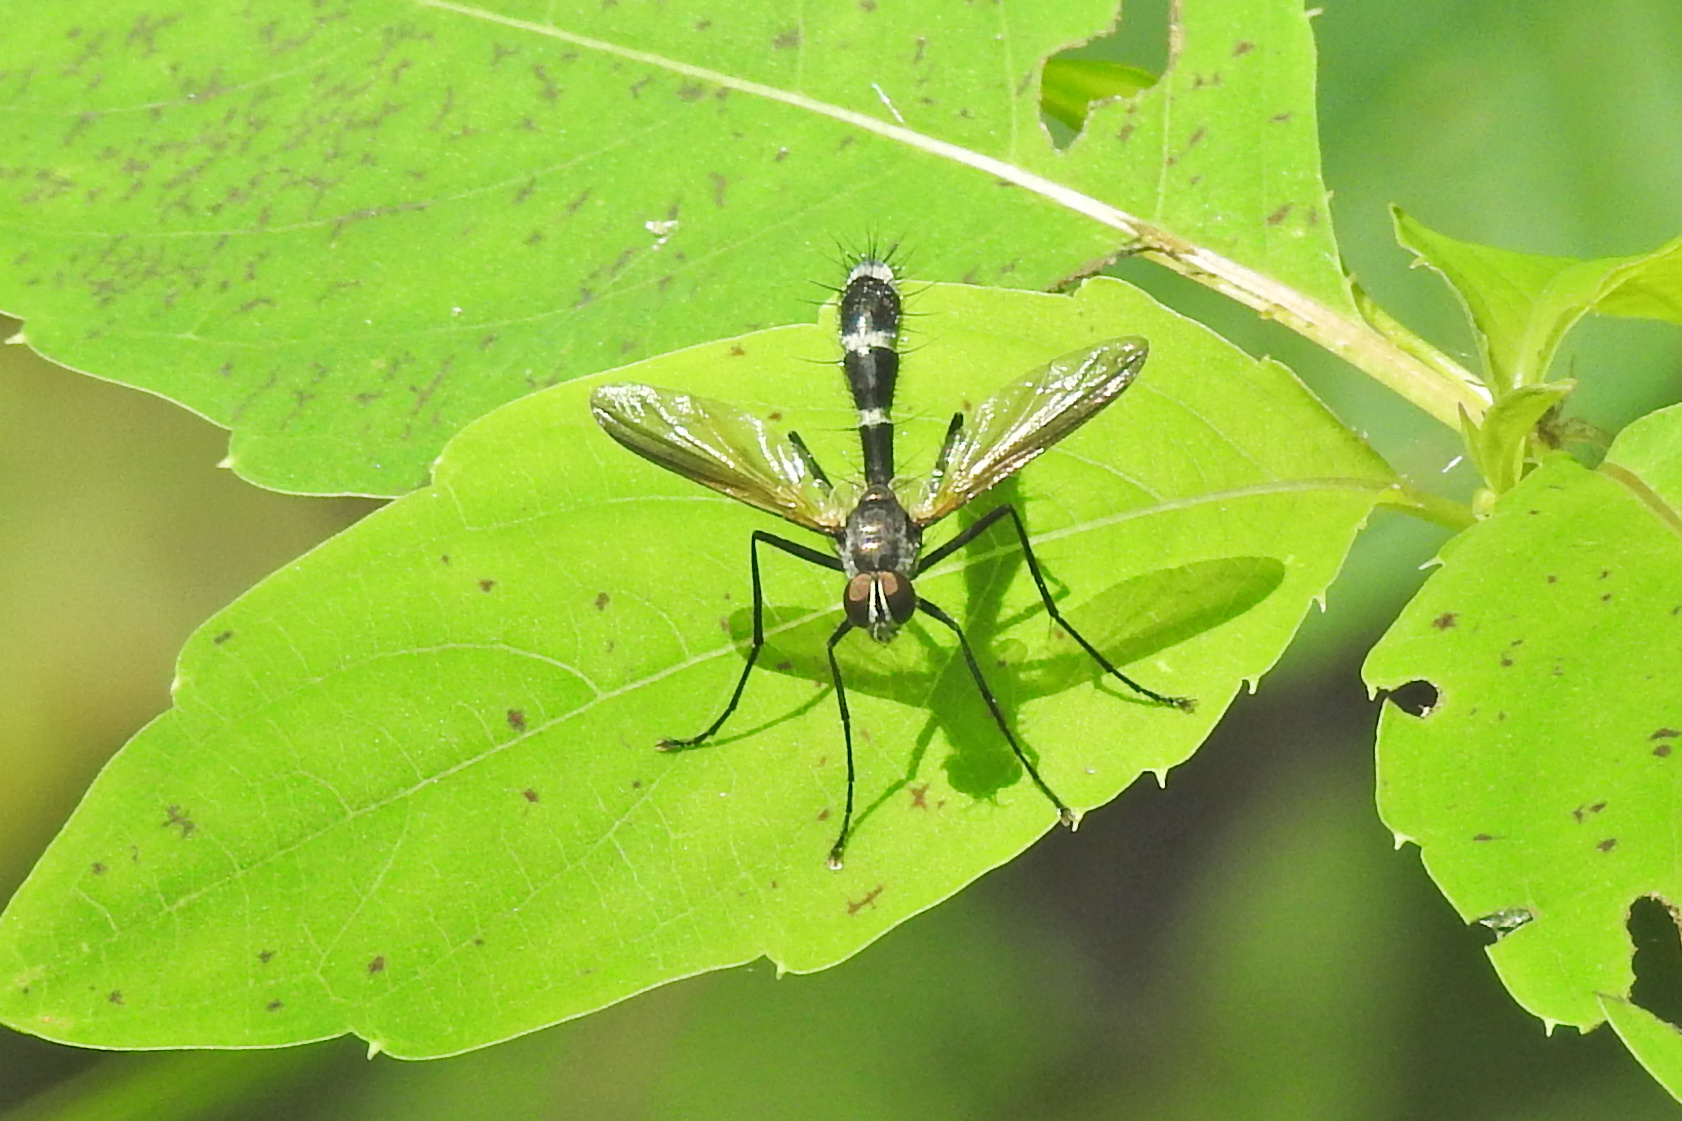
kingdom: Animalia
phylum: Arthropoda
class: Insecta
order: Diptera
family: Tachinidae
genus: Cordyligaster
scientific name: Cordyligaster septentrionalis
